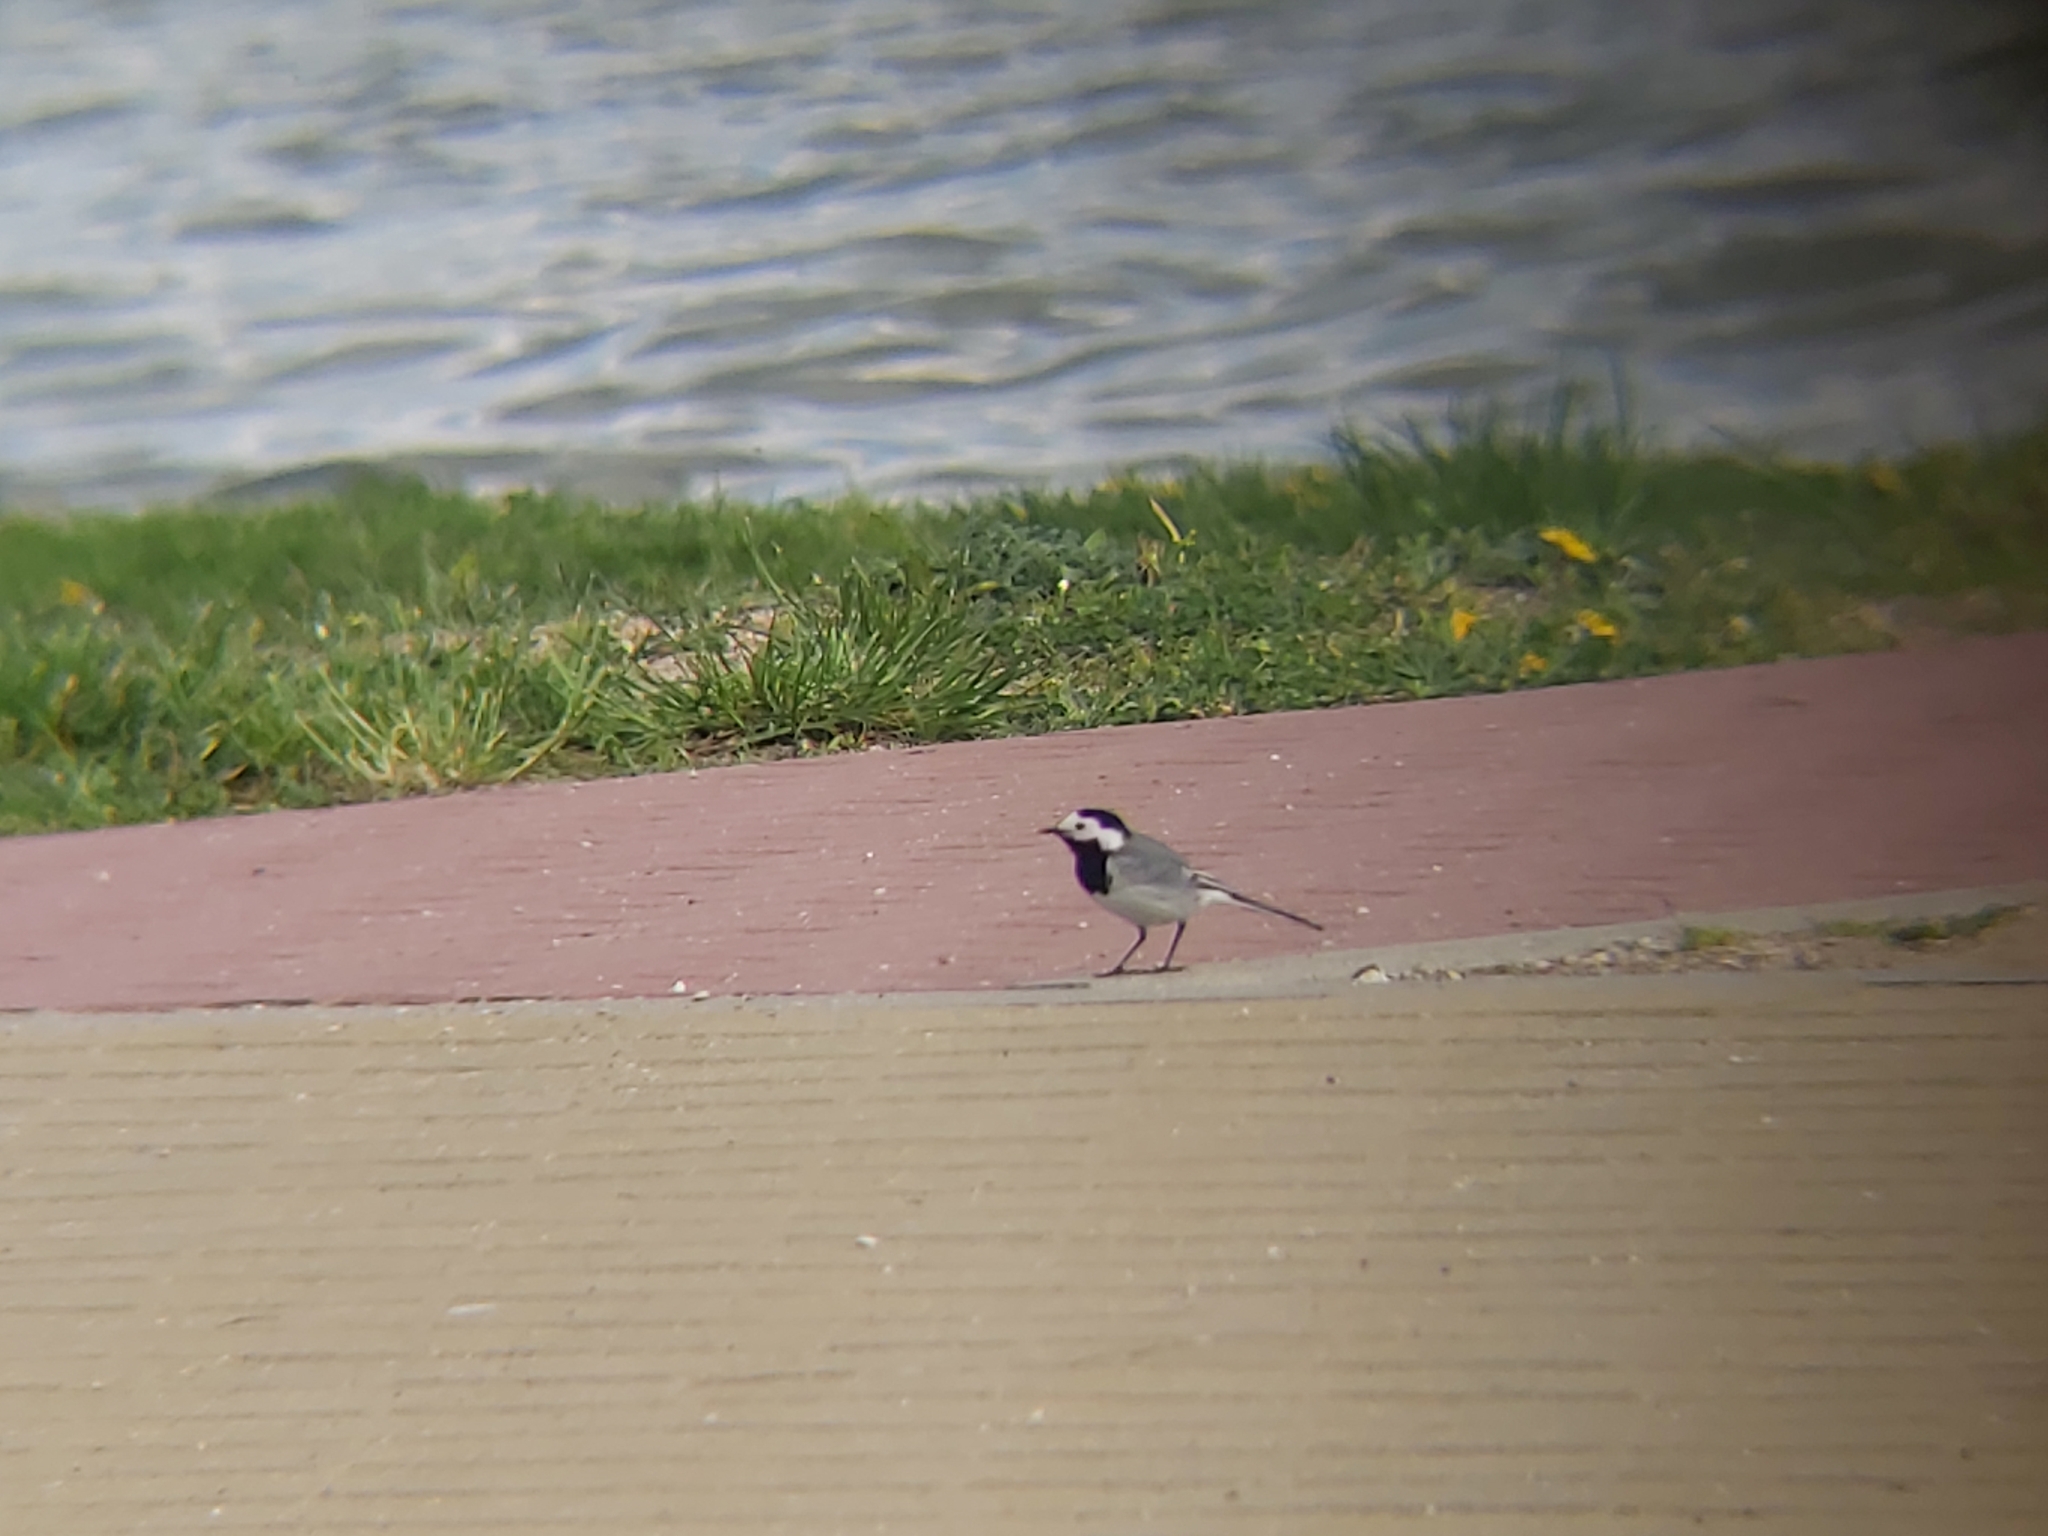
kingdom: Animalia
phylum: Chordata
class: Aves
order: Passeriformes
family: Motacillidae
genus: Motacilla
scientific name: Motacilla alba
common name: White wagtail
